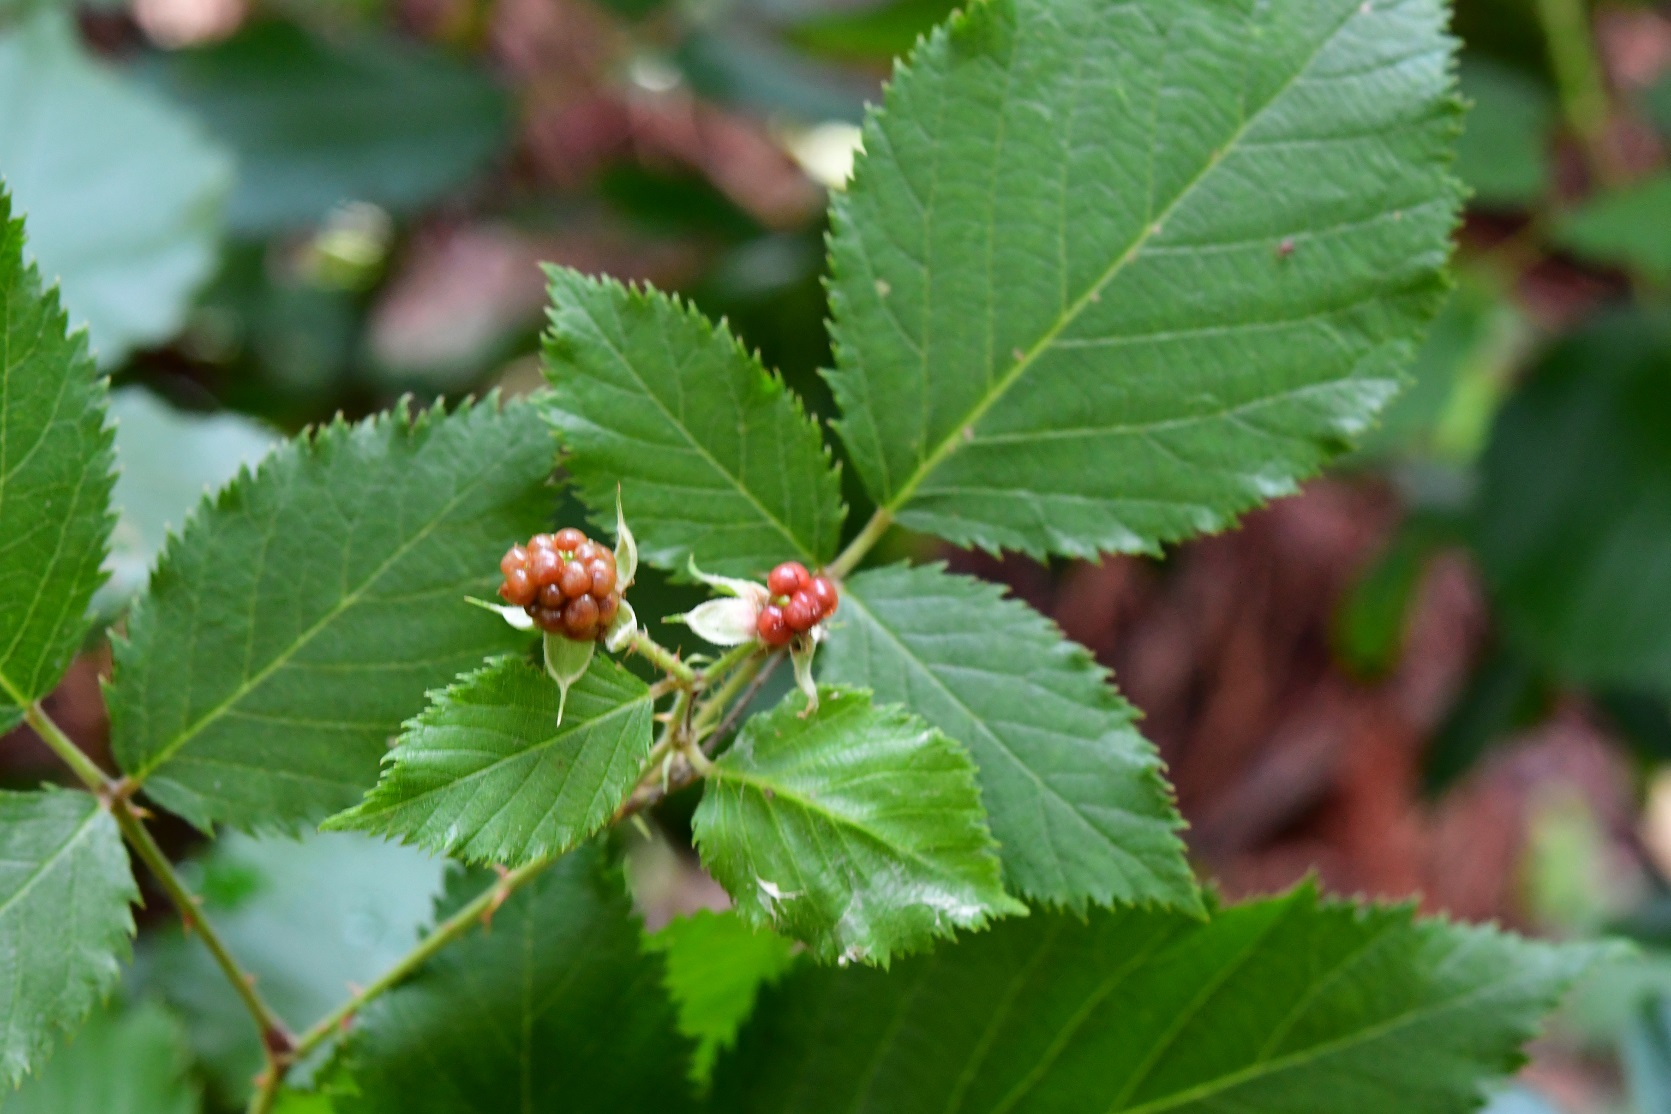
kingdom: Plantae
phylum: Tracheophyta
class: Magnoliopsida
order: Rosales
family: Rosaceae
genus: Rubus
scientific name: Rubus pringlei
